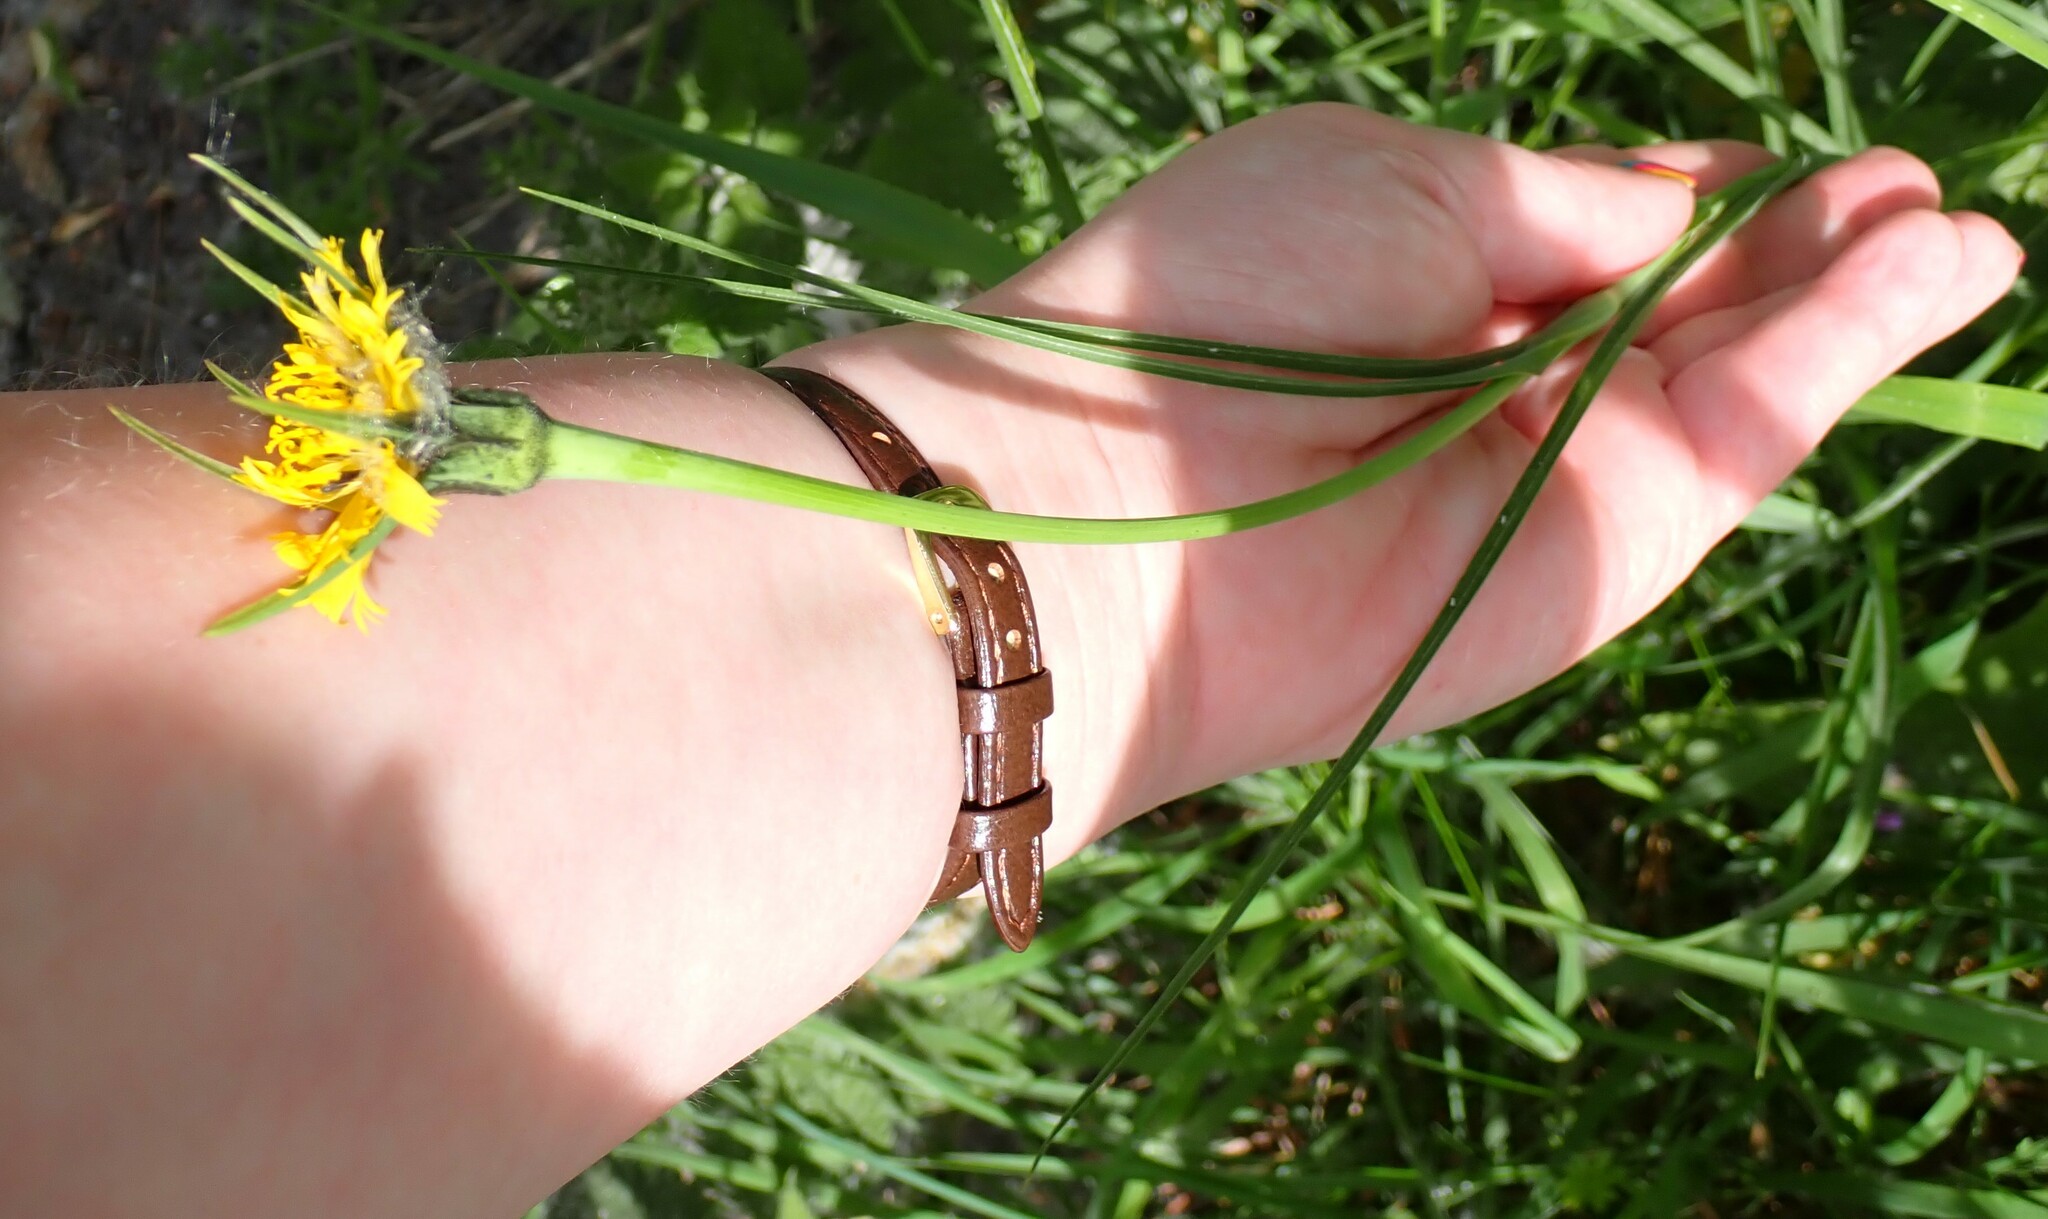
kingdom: Plantae
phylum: Tracheophyta
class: Magnoliopsida
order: Asterales
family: Asteraceae
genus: Tragopogon
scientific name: Tragopogon pratensis
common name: Goat's-beard
